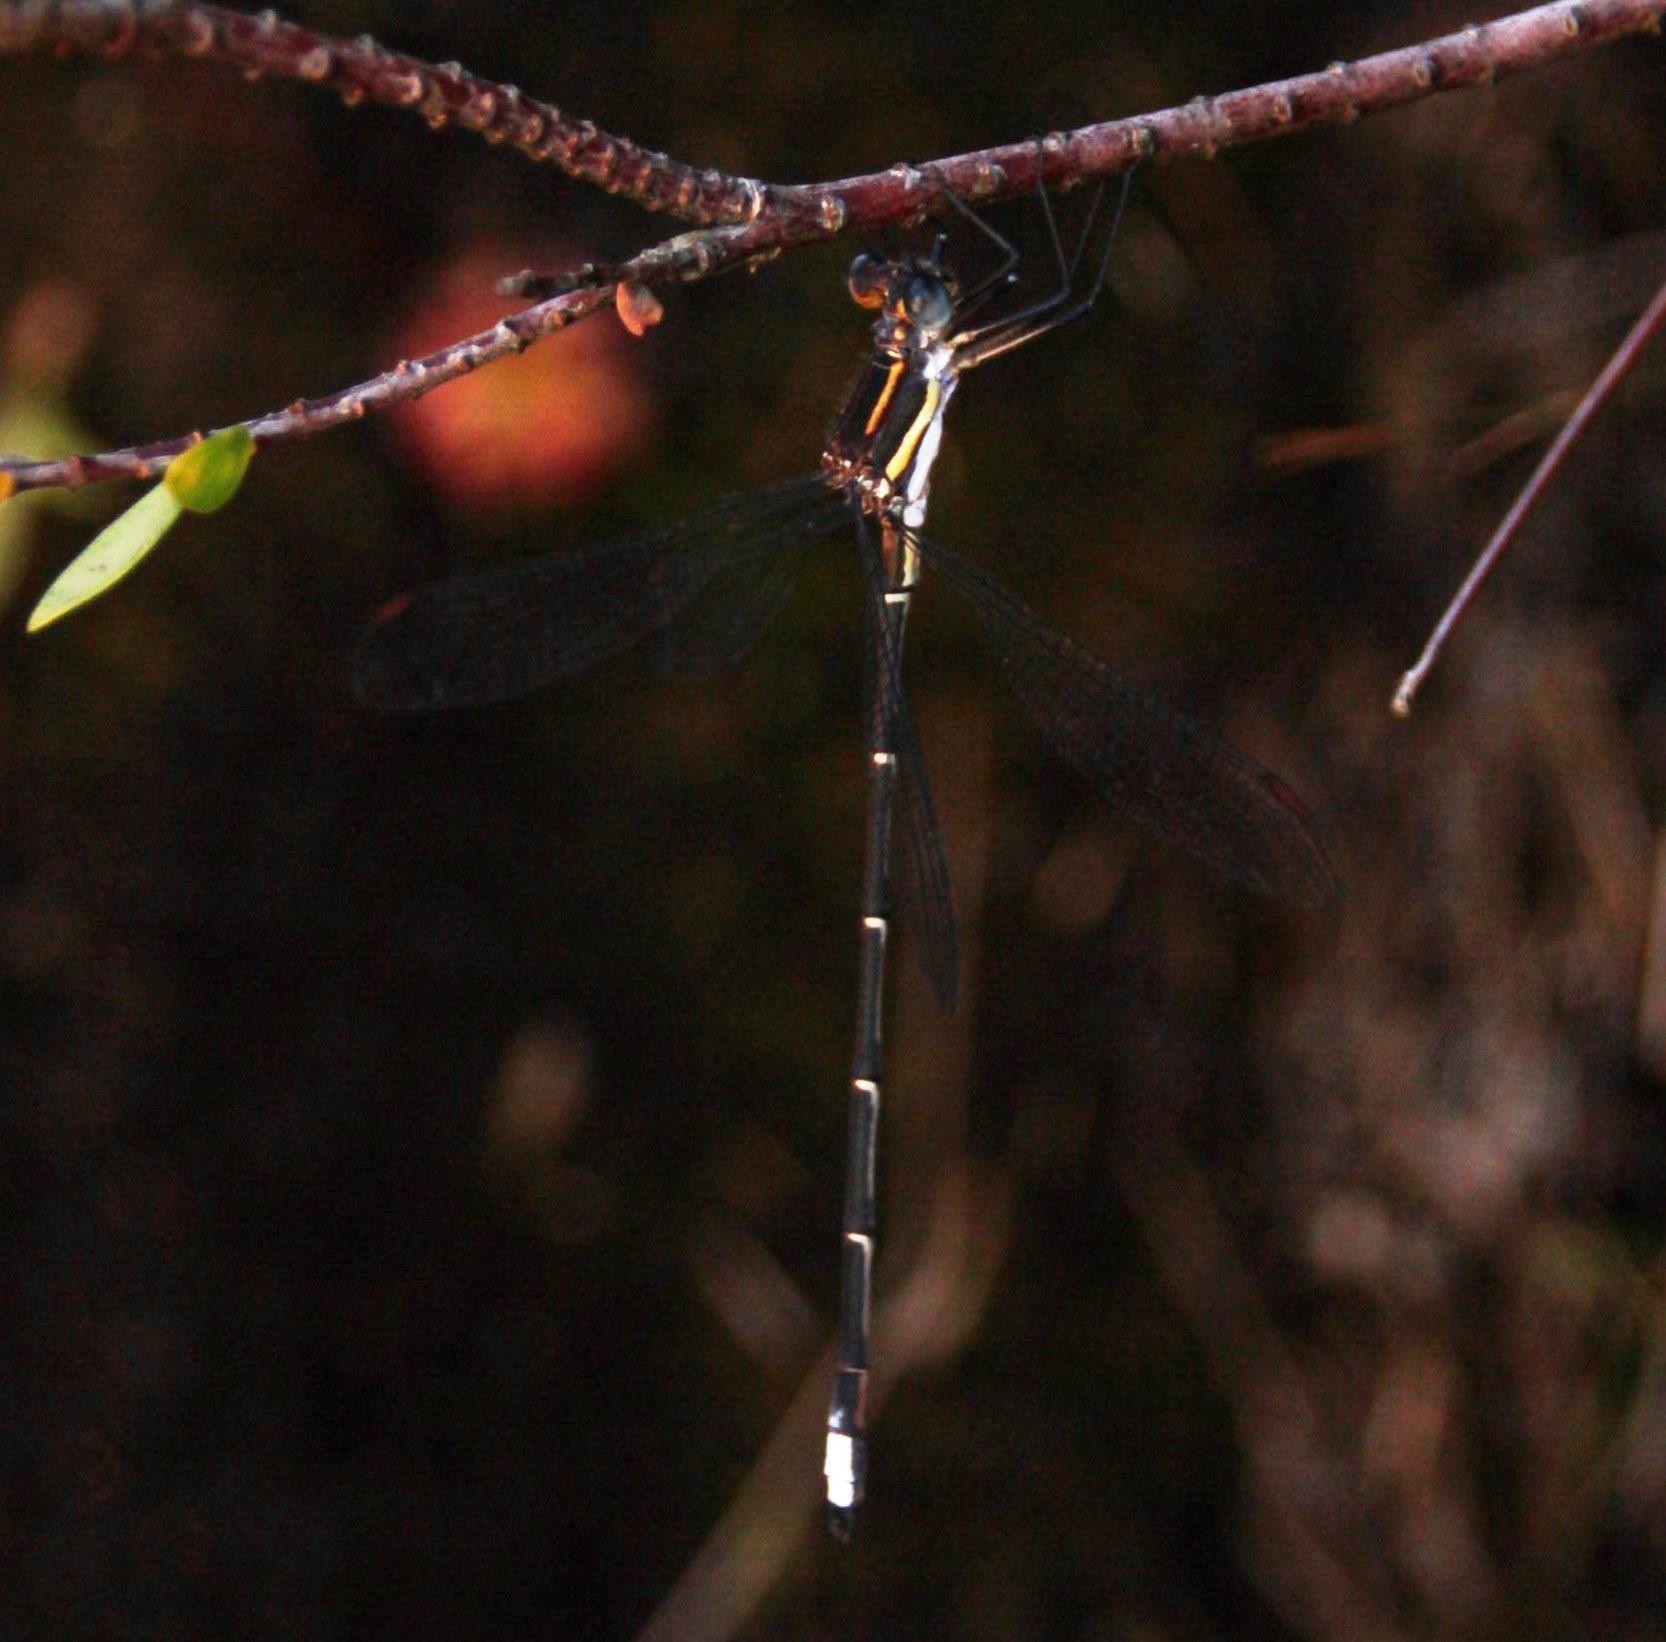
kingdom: Animalia
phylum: Arthropoda
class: Insecta
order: Odonata
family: Synlestidae
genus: Chlorolestes
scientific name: Chlorolestes conspicuus
